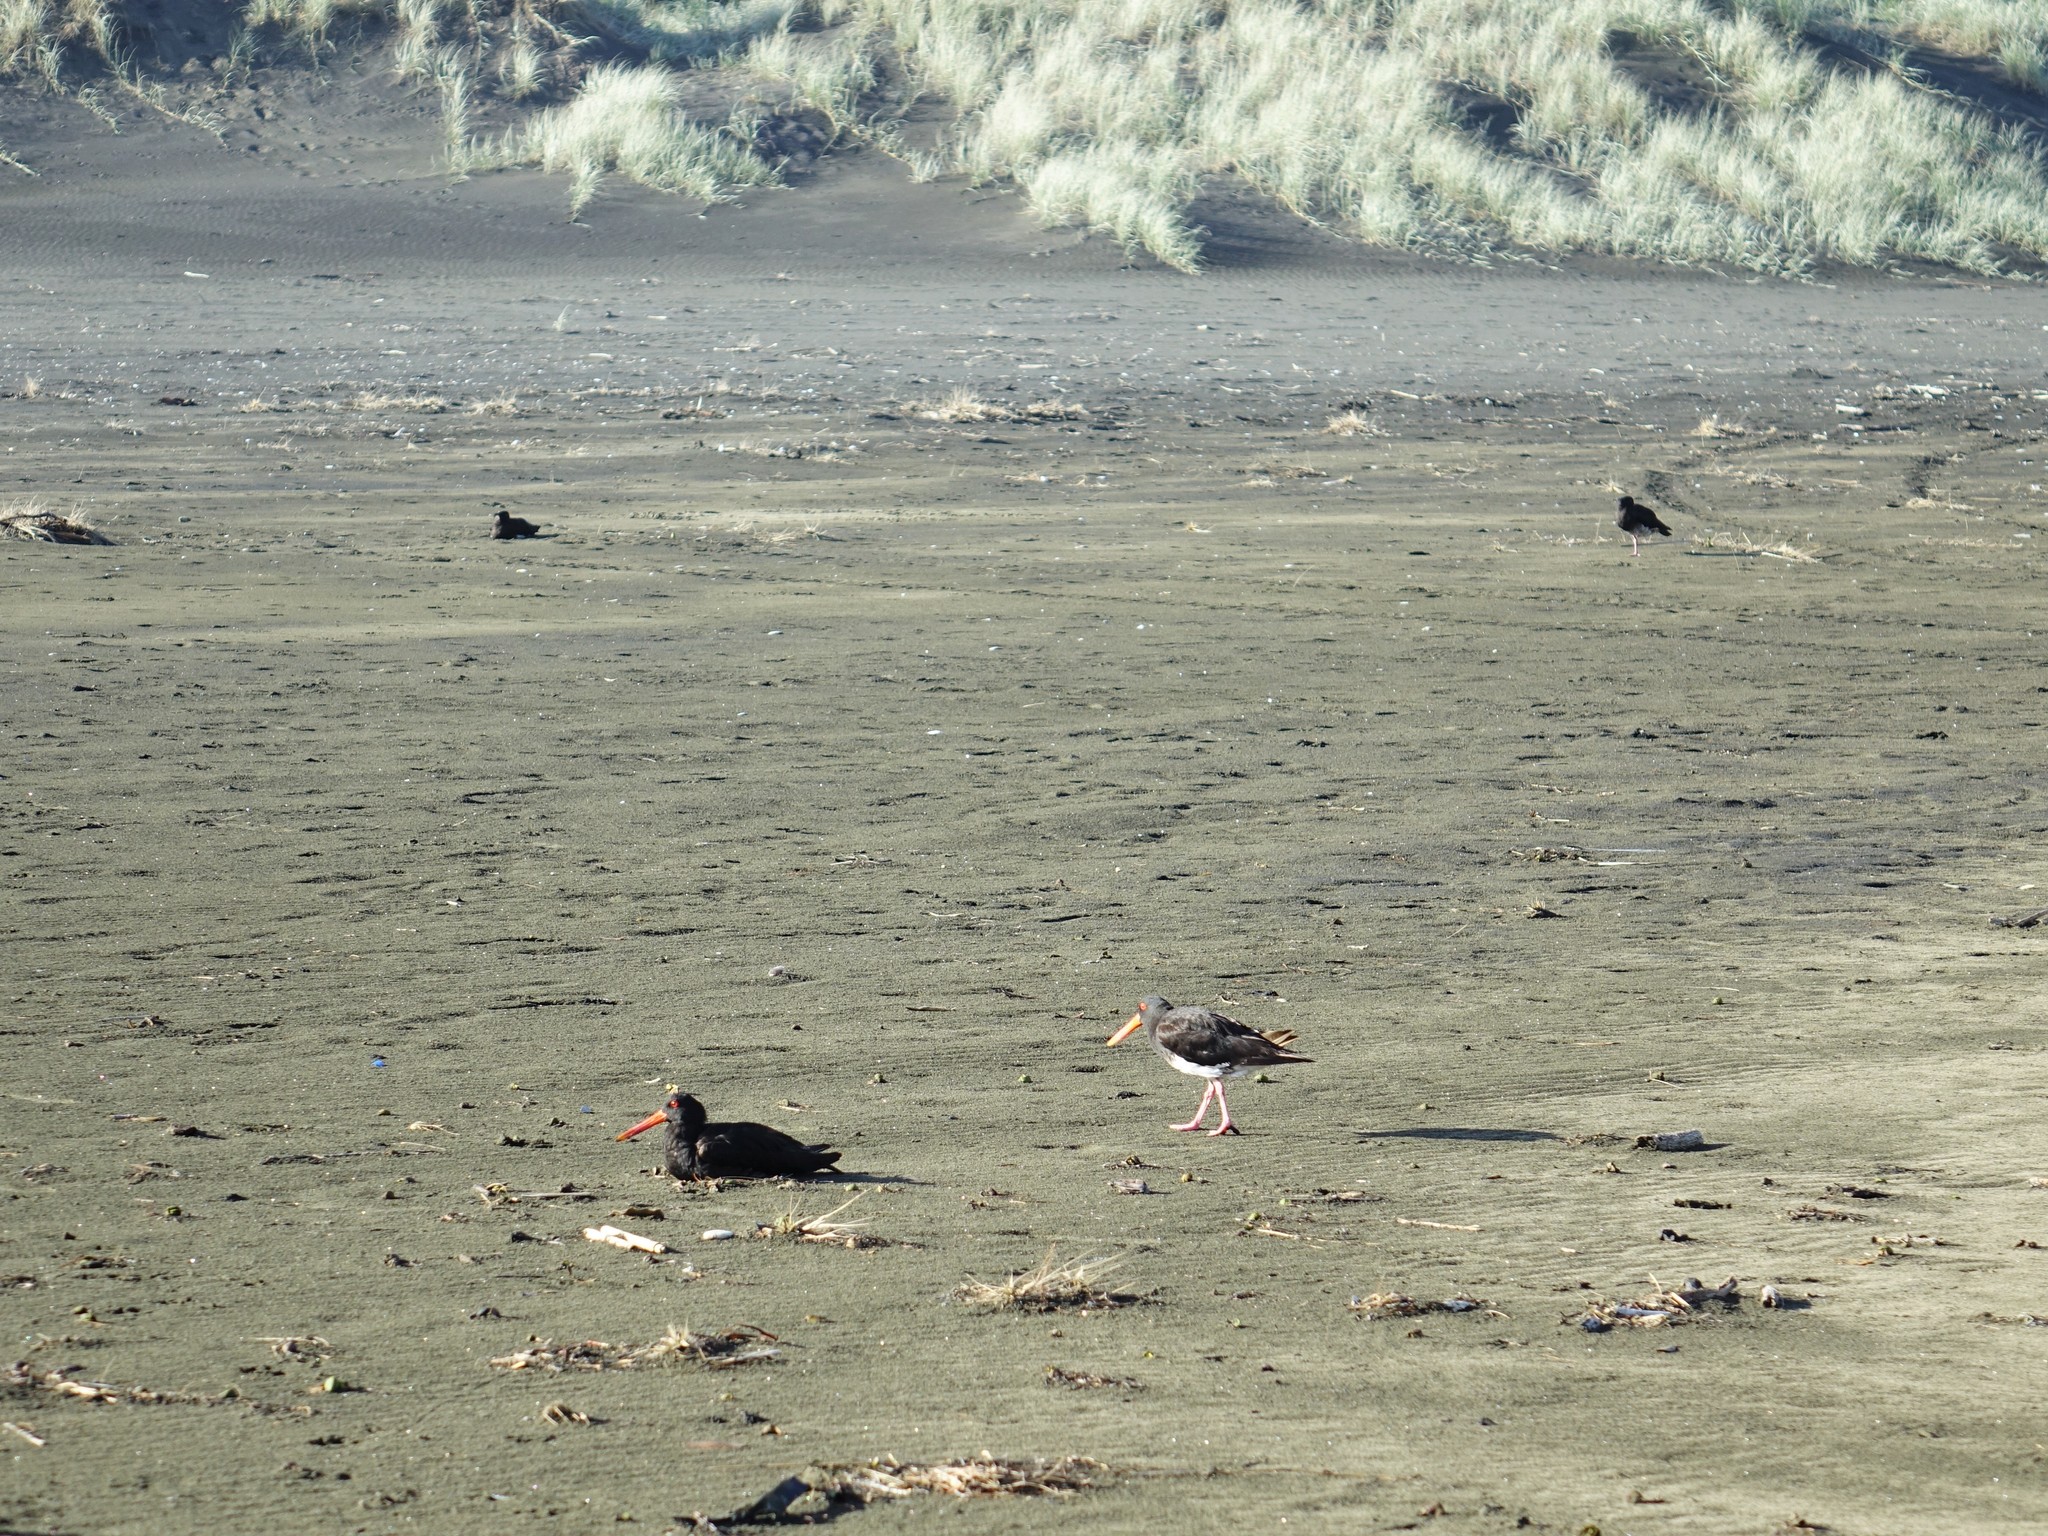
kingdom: Animalia
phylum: Chordata
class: Aves
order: Charadriiformes
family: Haematopodidae
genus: Haematopus
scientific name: Haematopus unicolor
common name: Variable oystercatcher
